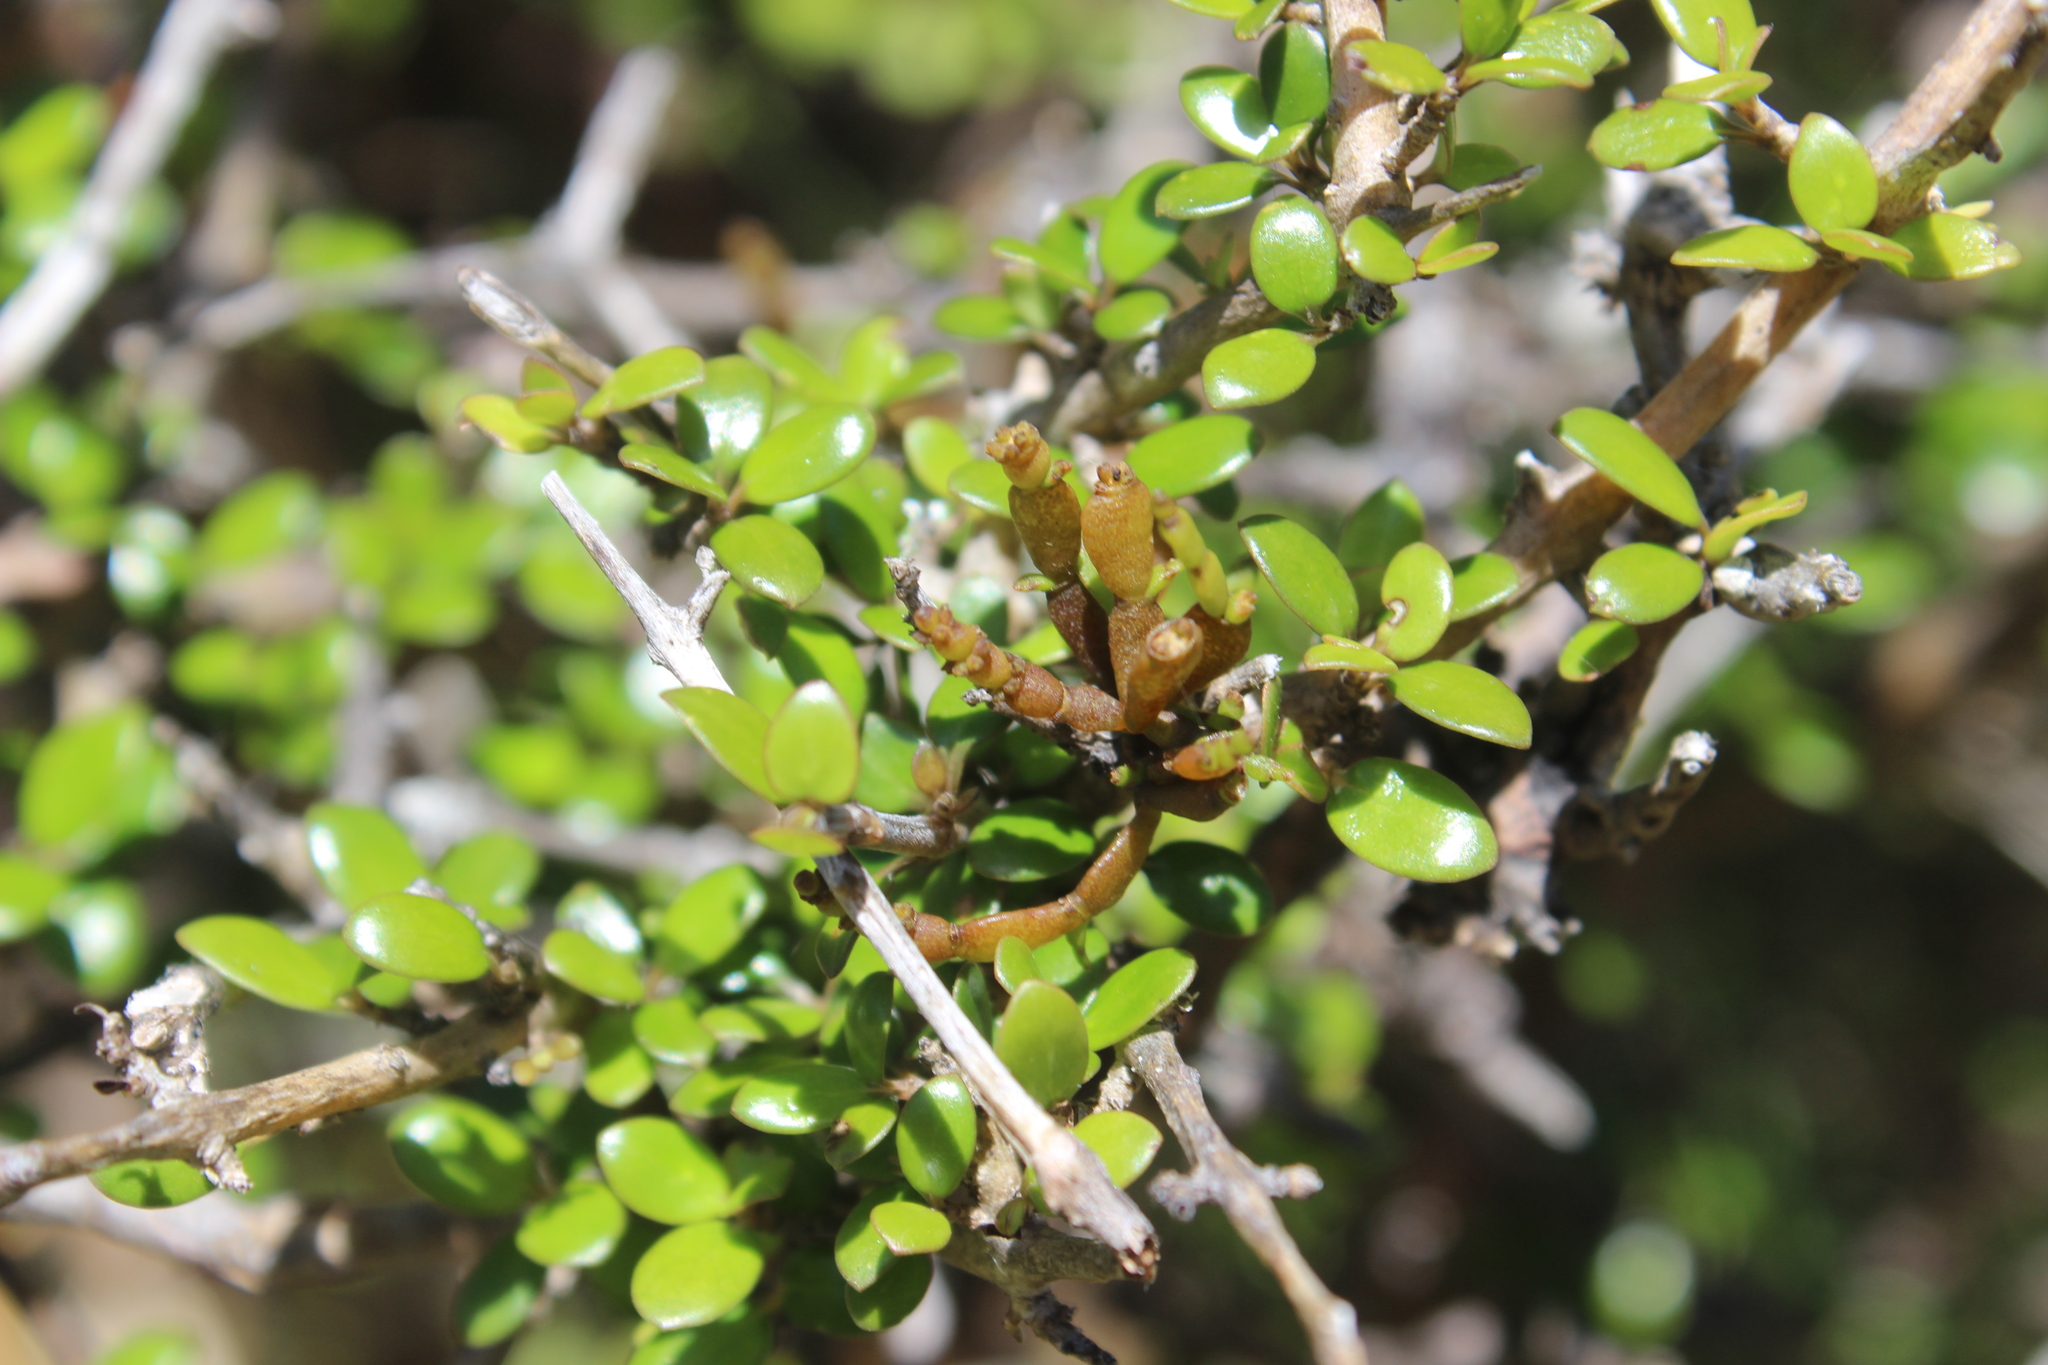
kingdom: Plantae
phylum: Tracheophyta
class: Magnoliopsida
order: Santalales
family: Viscaceae
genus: Korthalsella
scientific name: Korthalsella clavata
